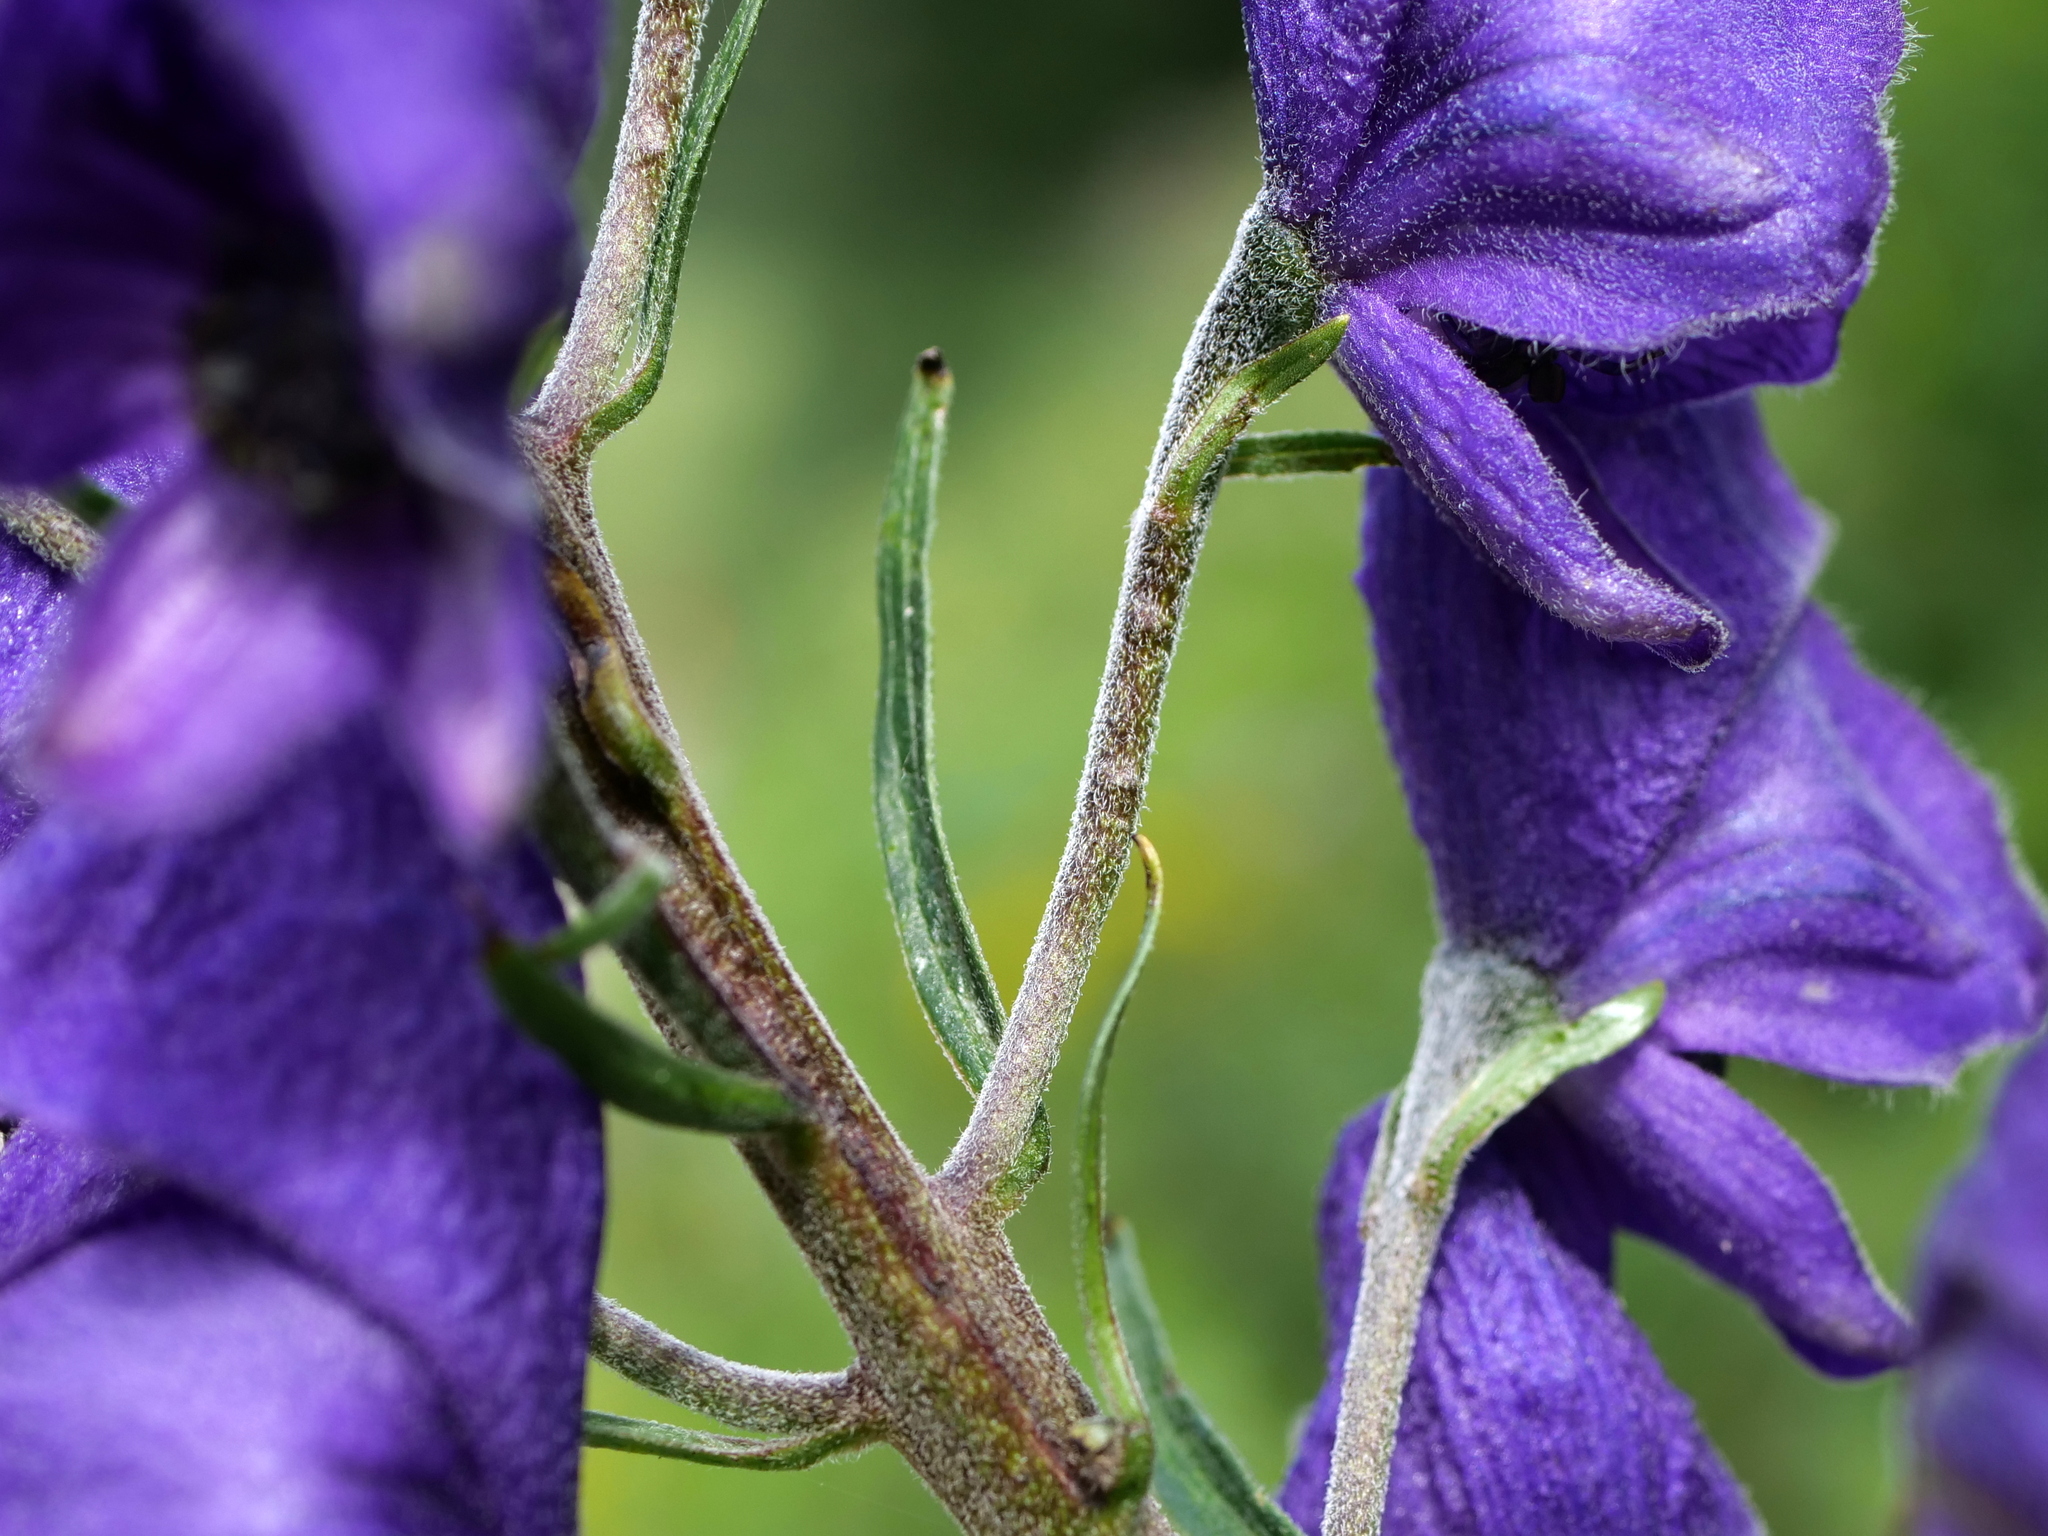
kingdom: Plantae
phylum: Tracheophyta
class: Magnoliopsida
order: Ranunculales
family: Ranunculaceae
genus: Aconitum
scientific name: Aconitum napellus
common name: Garden monkshood
